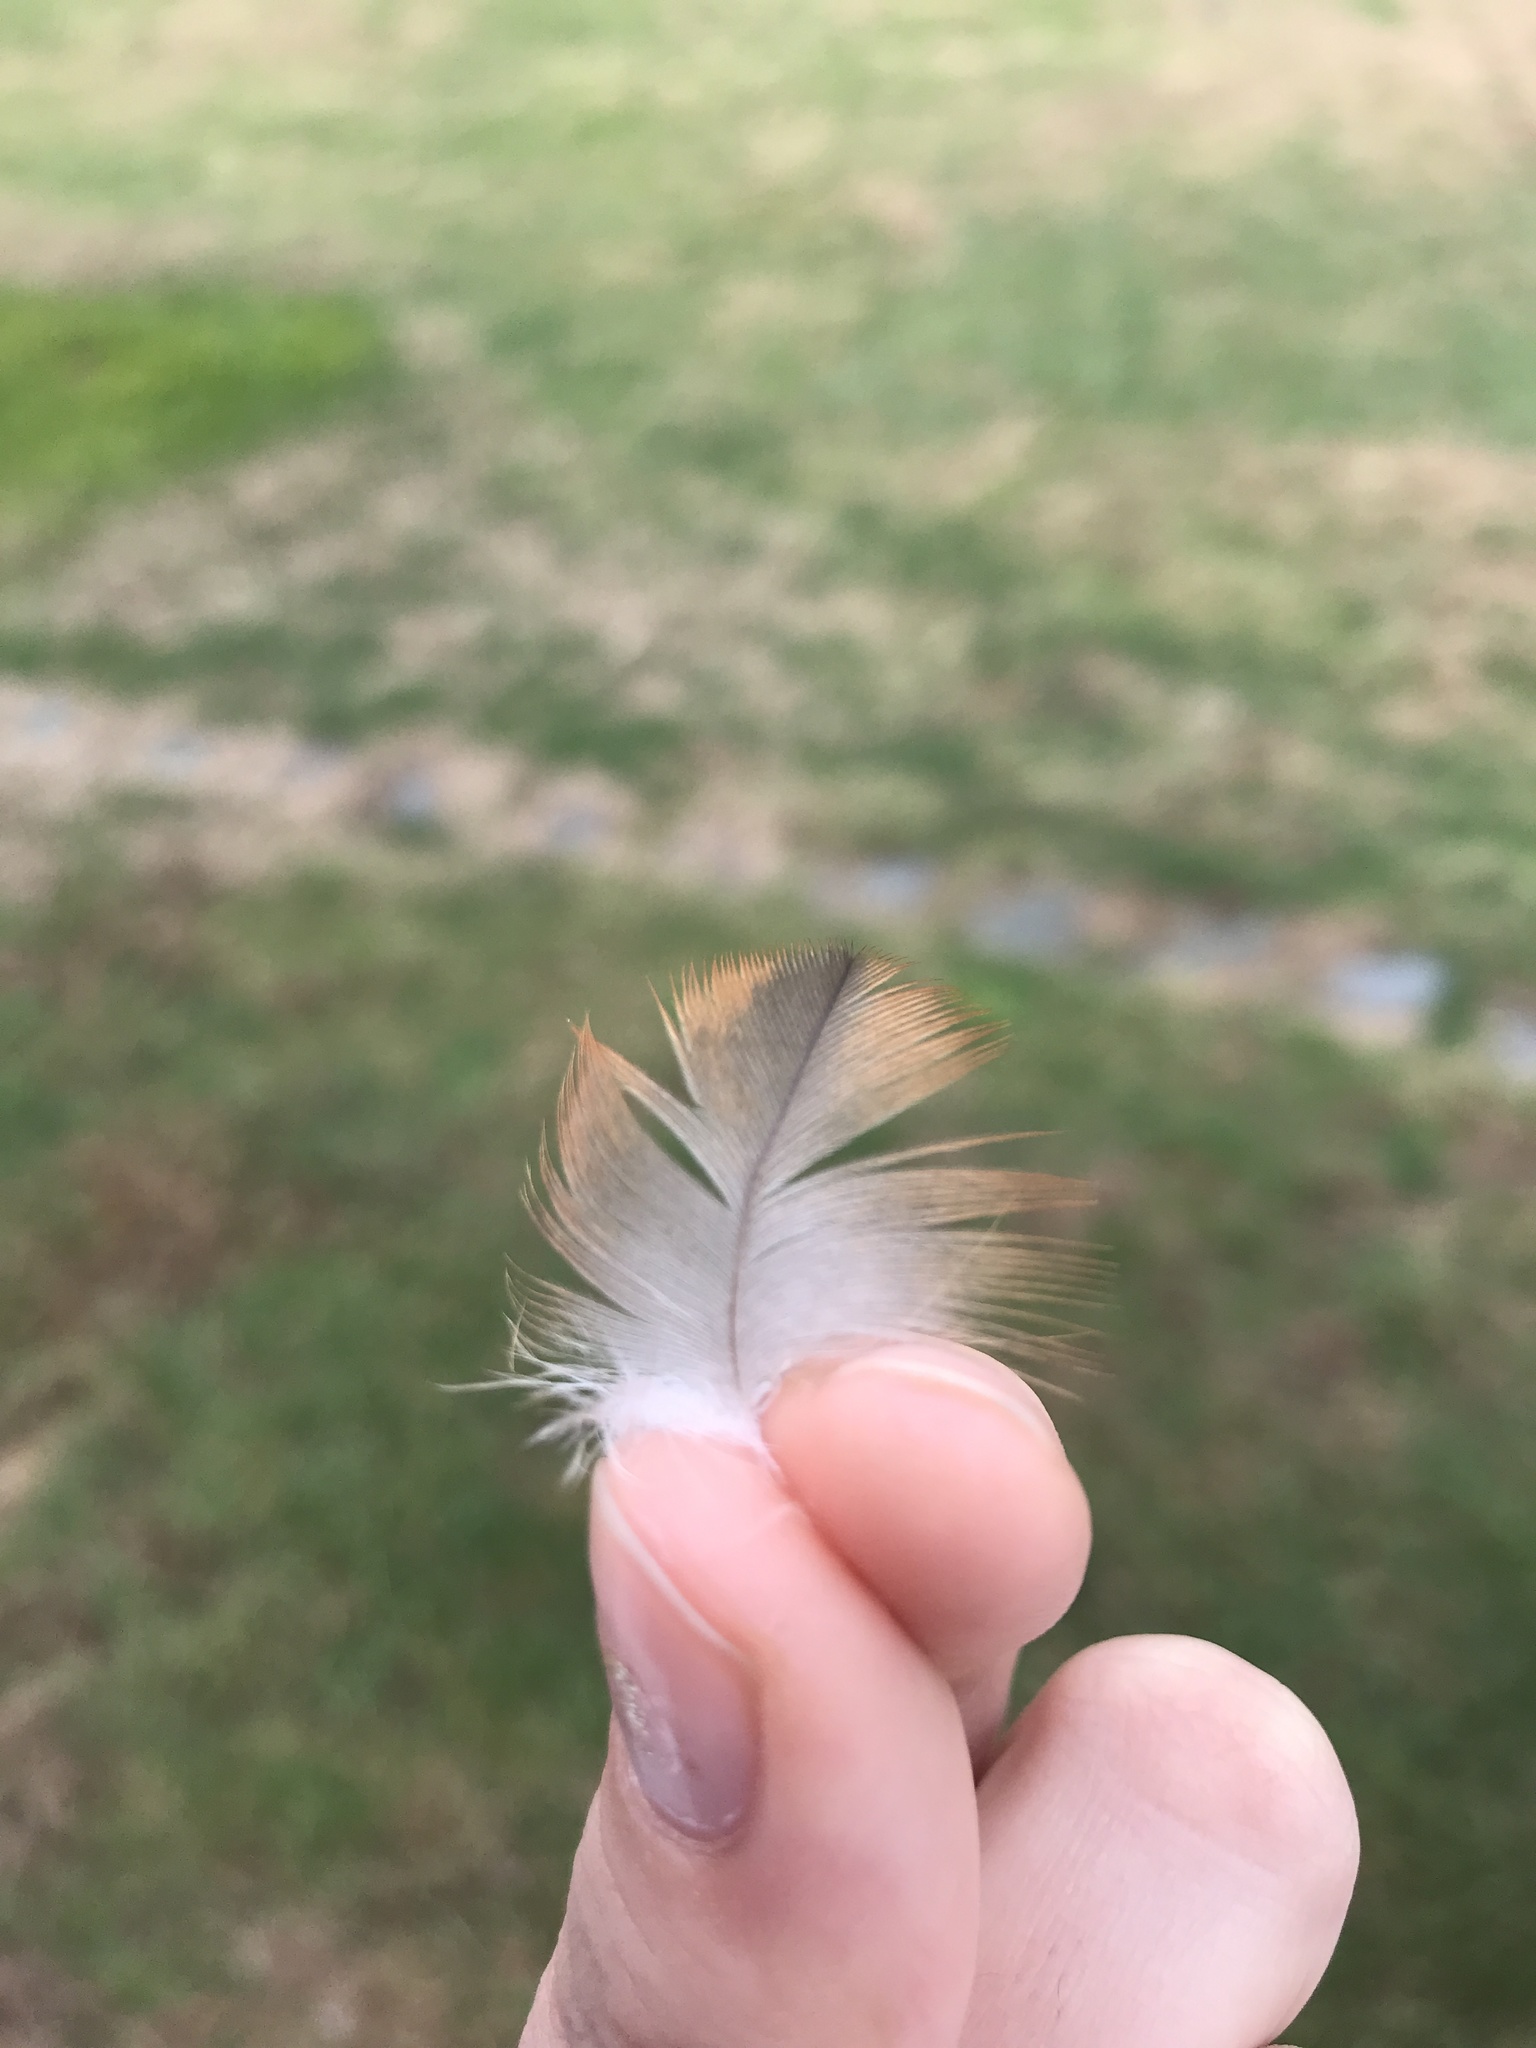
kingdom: Animalia
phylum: Chordata
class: Aves
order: Accipitriformes
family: Accipitridae
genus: Buteo
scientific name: Buteo lineatus
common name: Red-shouldered hawk
